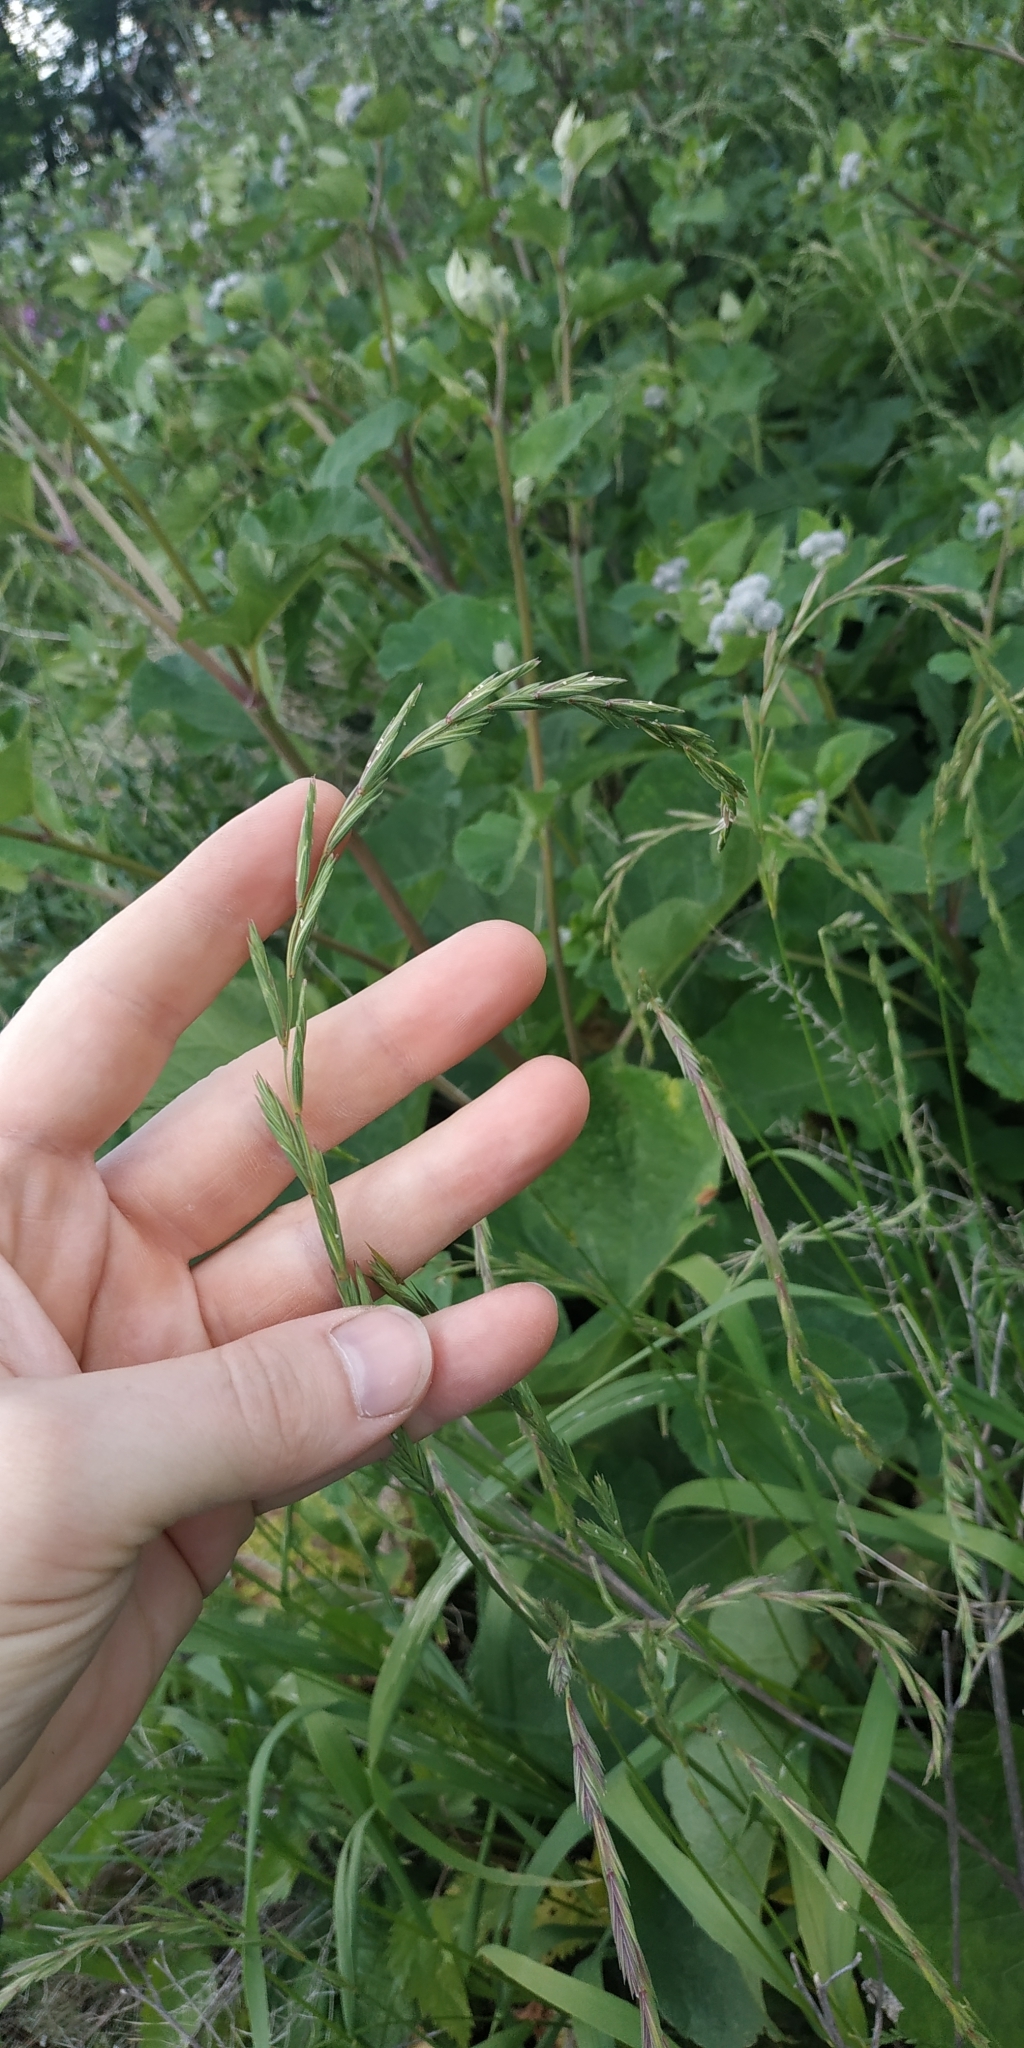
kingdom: Plantae
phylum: Tracheophyta
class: Liliopsida
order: Poales
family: Poaceae
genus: Elymus
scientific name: Elymus fibrosus
